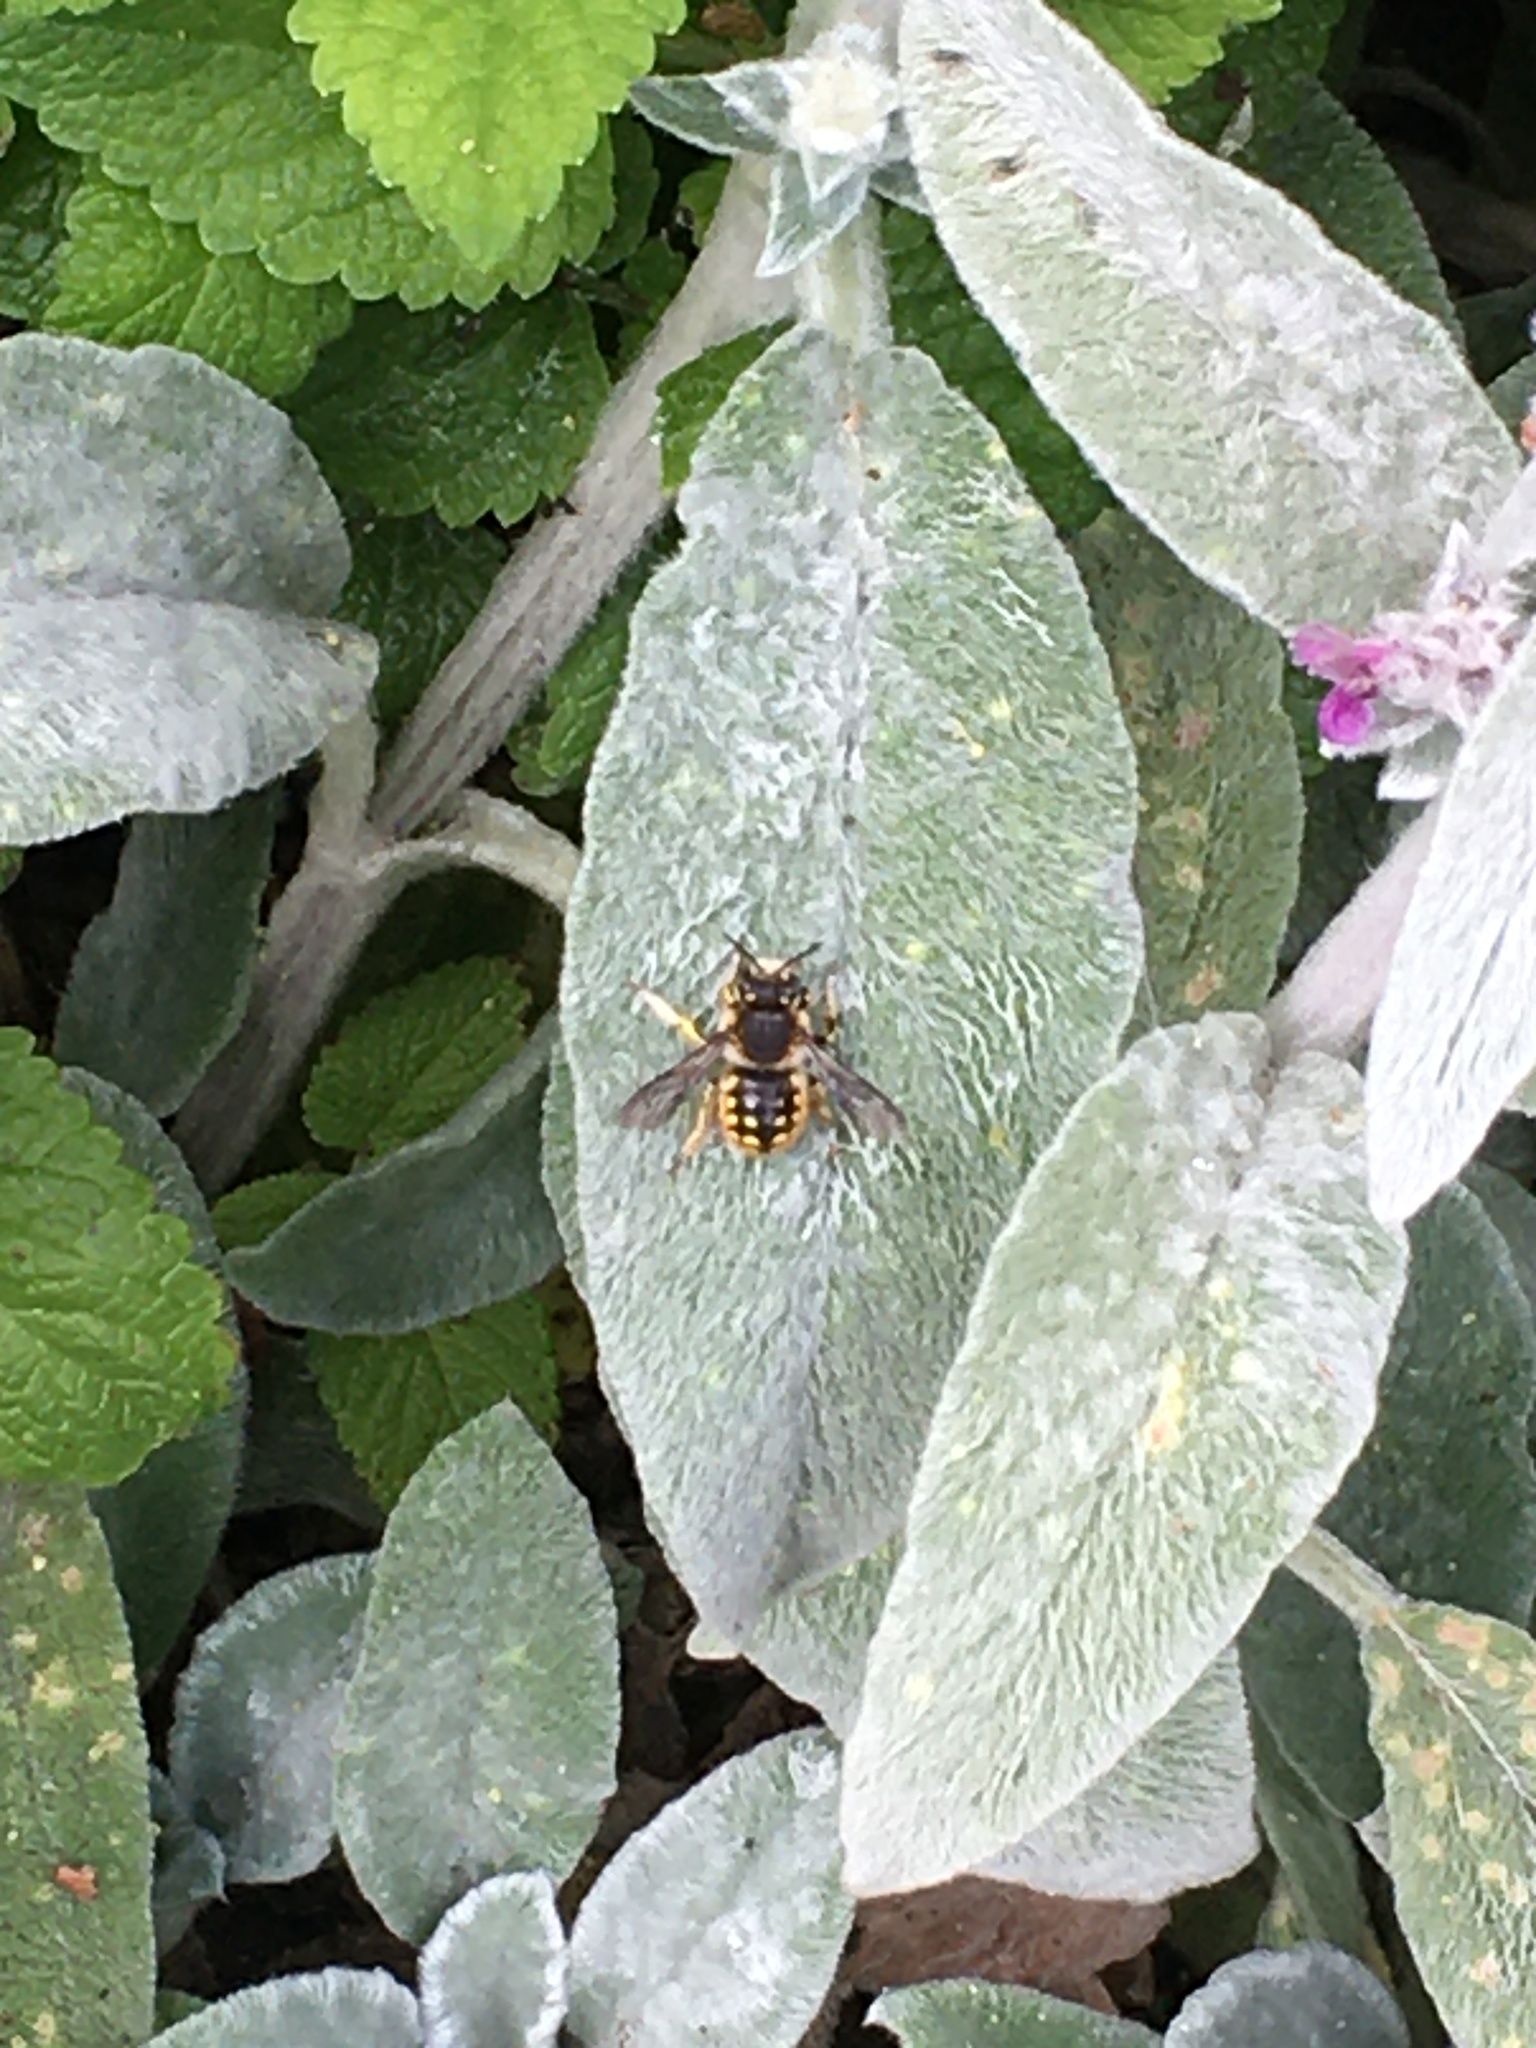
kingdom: Animalia
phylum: Arthropoda
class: Insecta
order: Hymenoptera
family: Megachilidae
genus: Anthidium
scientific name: Anthidium manicatum
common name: Wool carder bee
